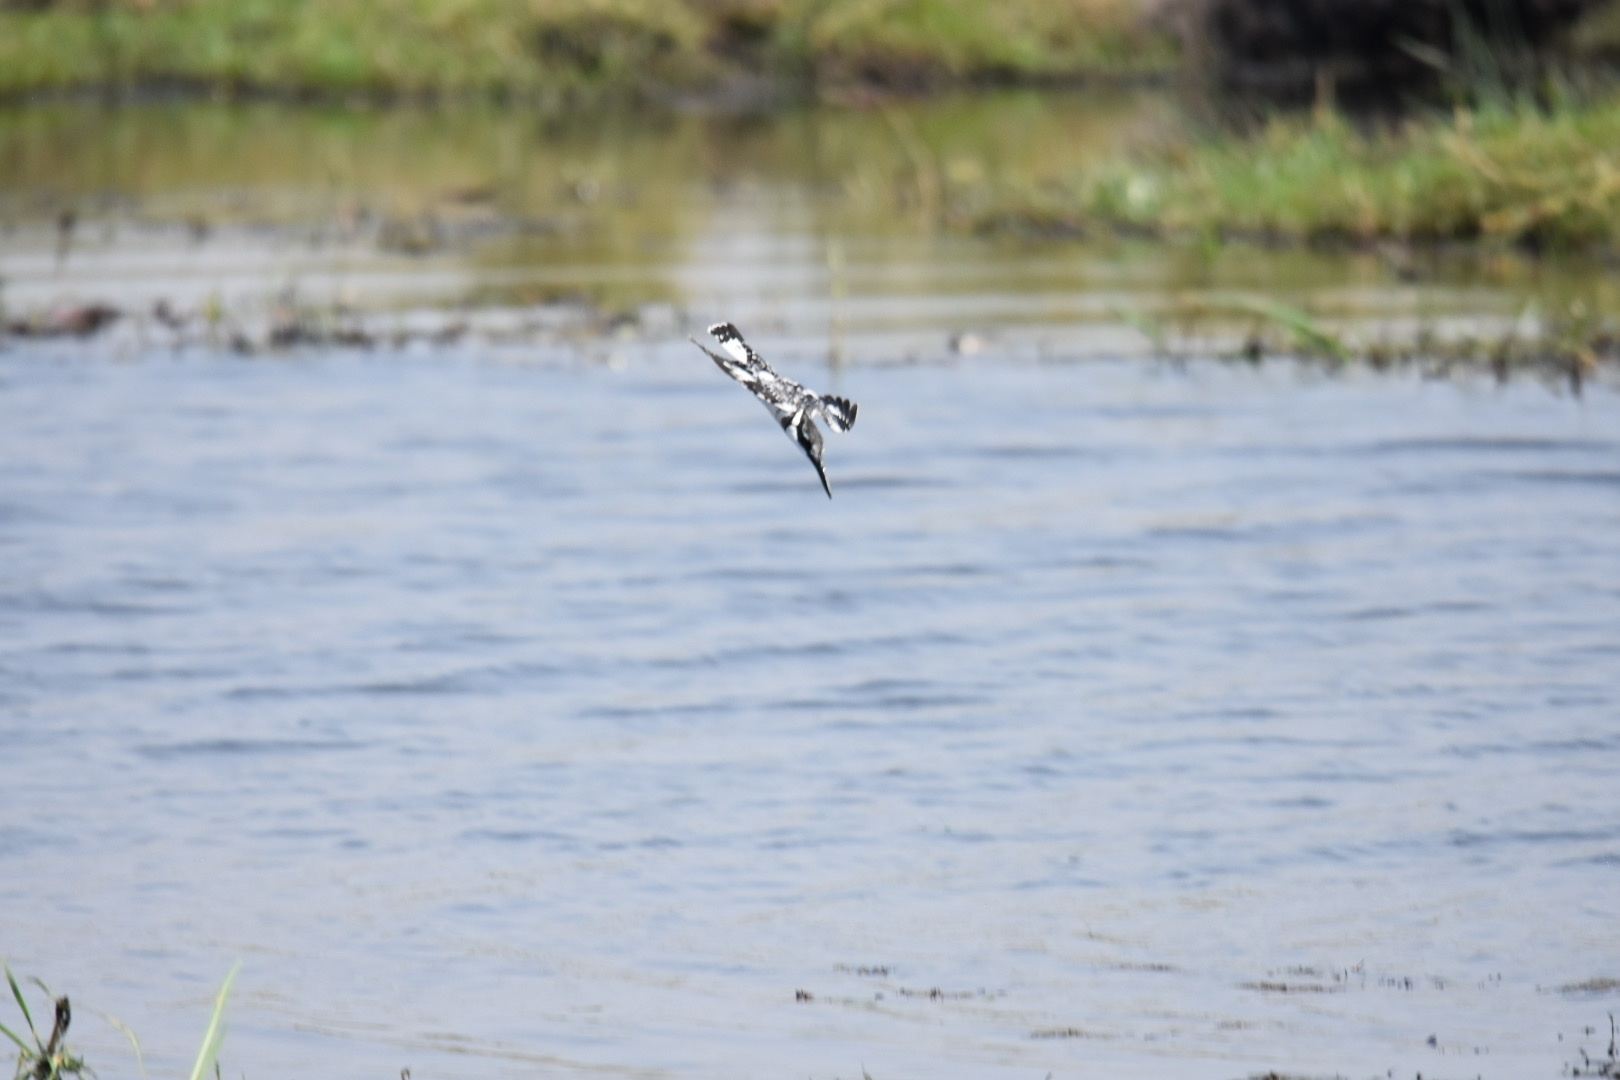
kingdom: Animalia
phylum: Chordata
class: Aves
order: Coraciiformes
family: Alcedinidae
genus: Ceryle
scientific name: Ceryle rudis
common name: Pied kingfisher
